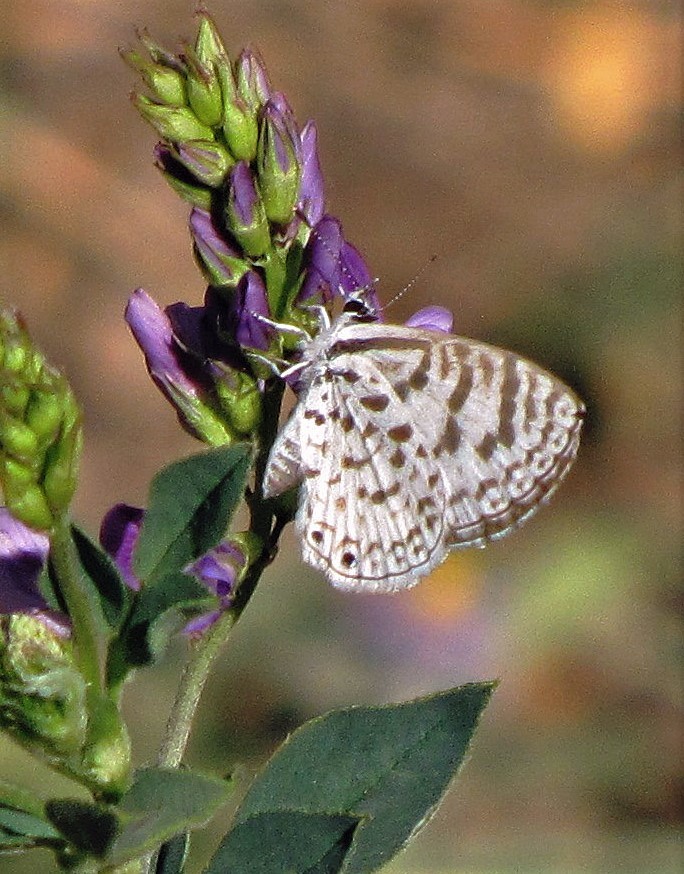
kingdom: Animalia
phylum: Arthropoda
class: Insecta
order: Lepidoptera
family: Lycaenidae
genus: Leptotes
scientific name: Leptotes cassius
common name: Cassius blue
